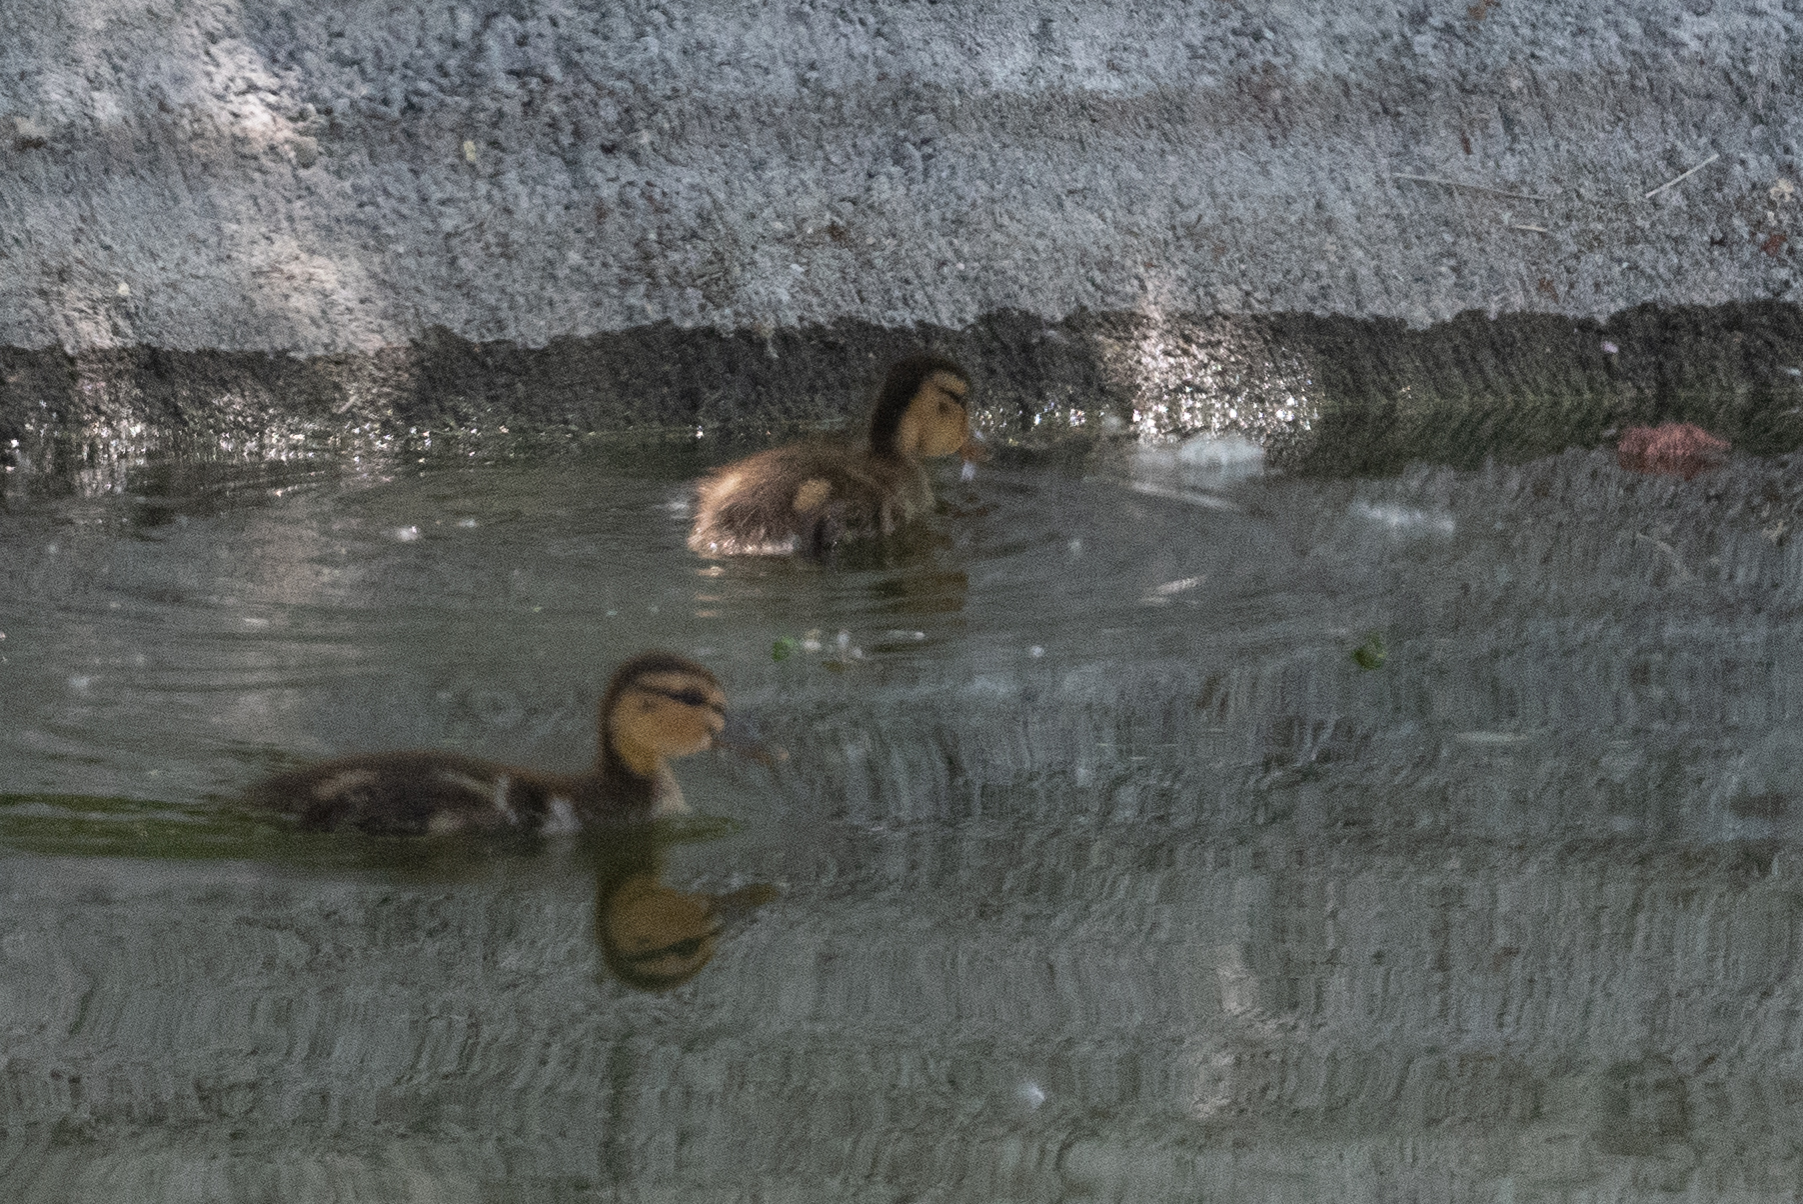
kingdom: Animalia
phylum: Chordata
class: Aves
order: Anseriformes
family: Anatidae
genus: Anas
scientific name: Anas platyrhynchos
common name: Mallard
